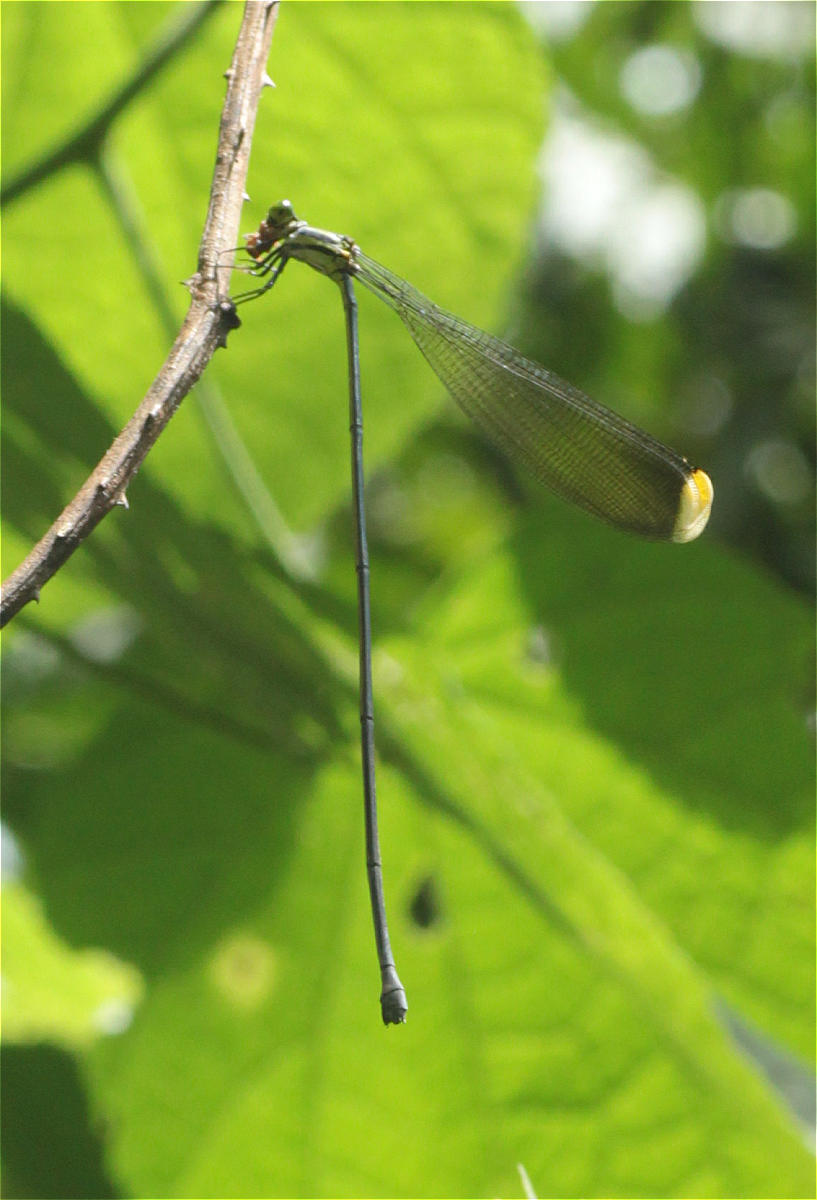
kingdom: Animalia
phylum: Arthropoda
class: Insecta
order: Odonata
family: Coenagrionidae
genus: Mecistogaster
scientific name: Mecistogaster ornata
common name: Ornate helicopter
